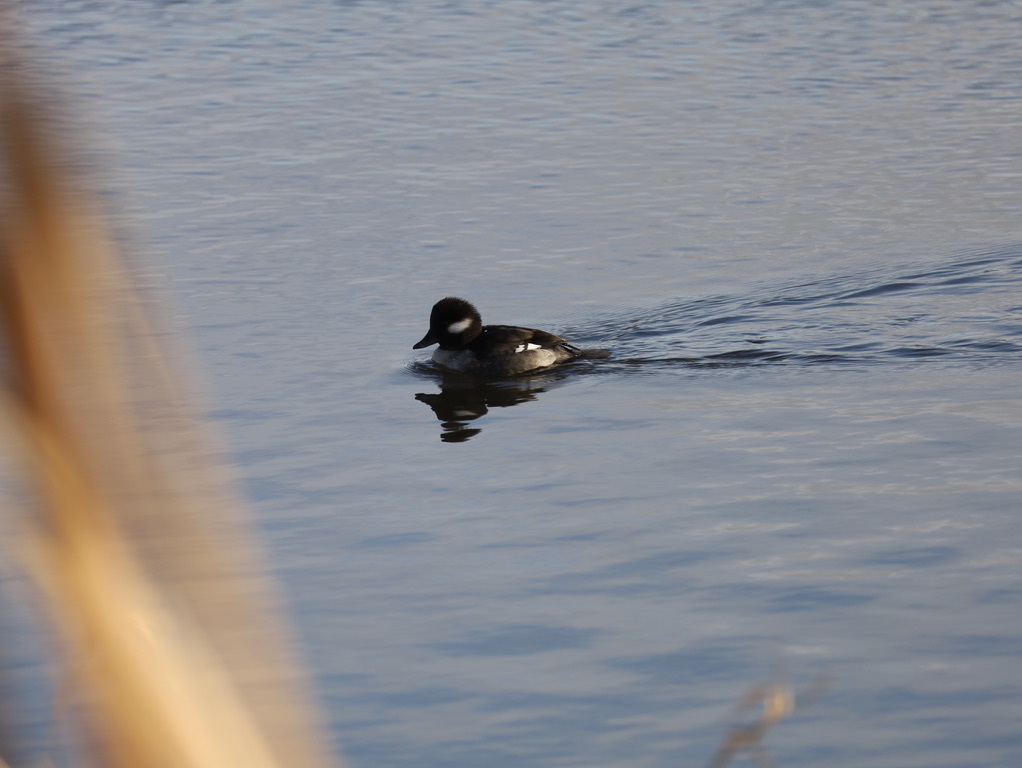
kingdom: Animalia
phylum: Chordata
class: Aves
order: Anseriformes
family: Anatidae
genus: Bucephala
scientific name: Bucephala albeola
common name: Bufflehead
